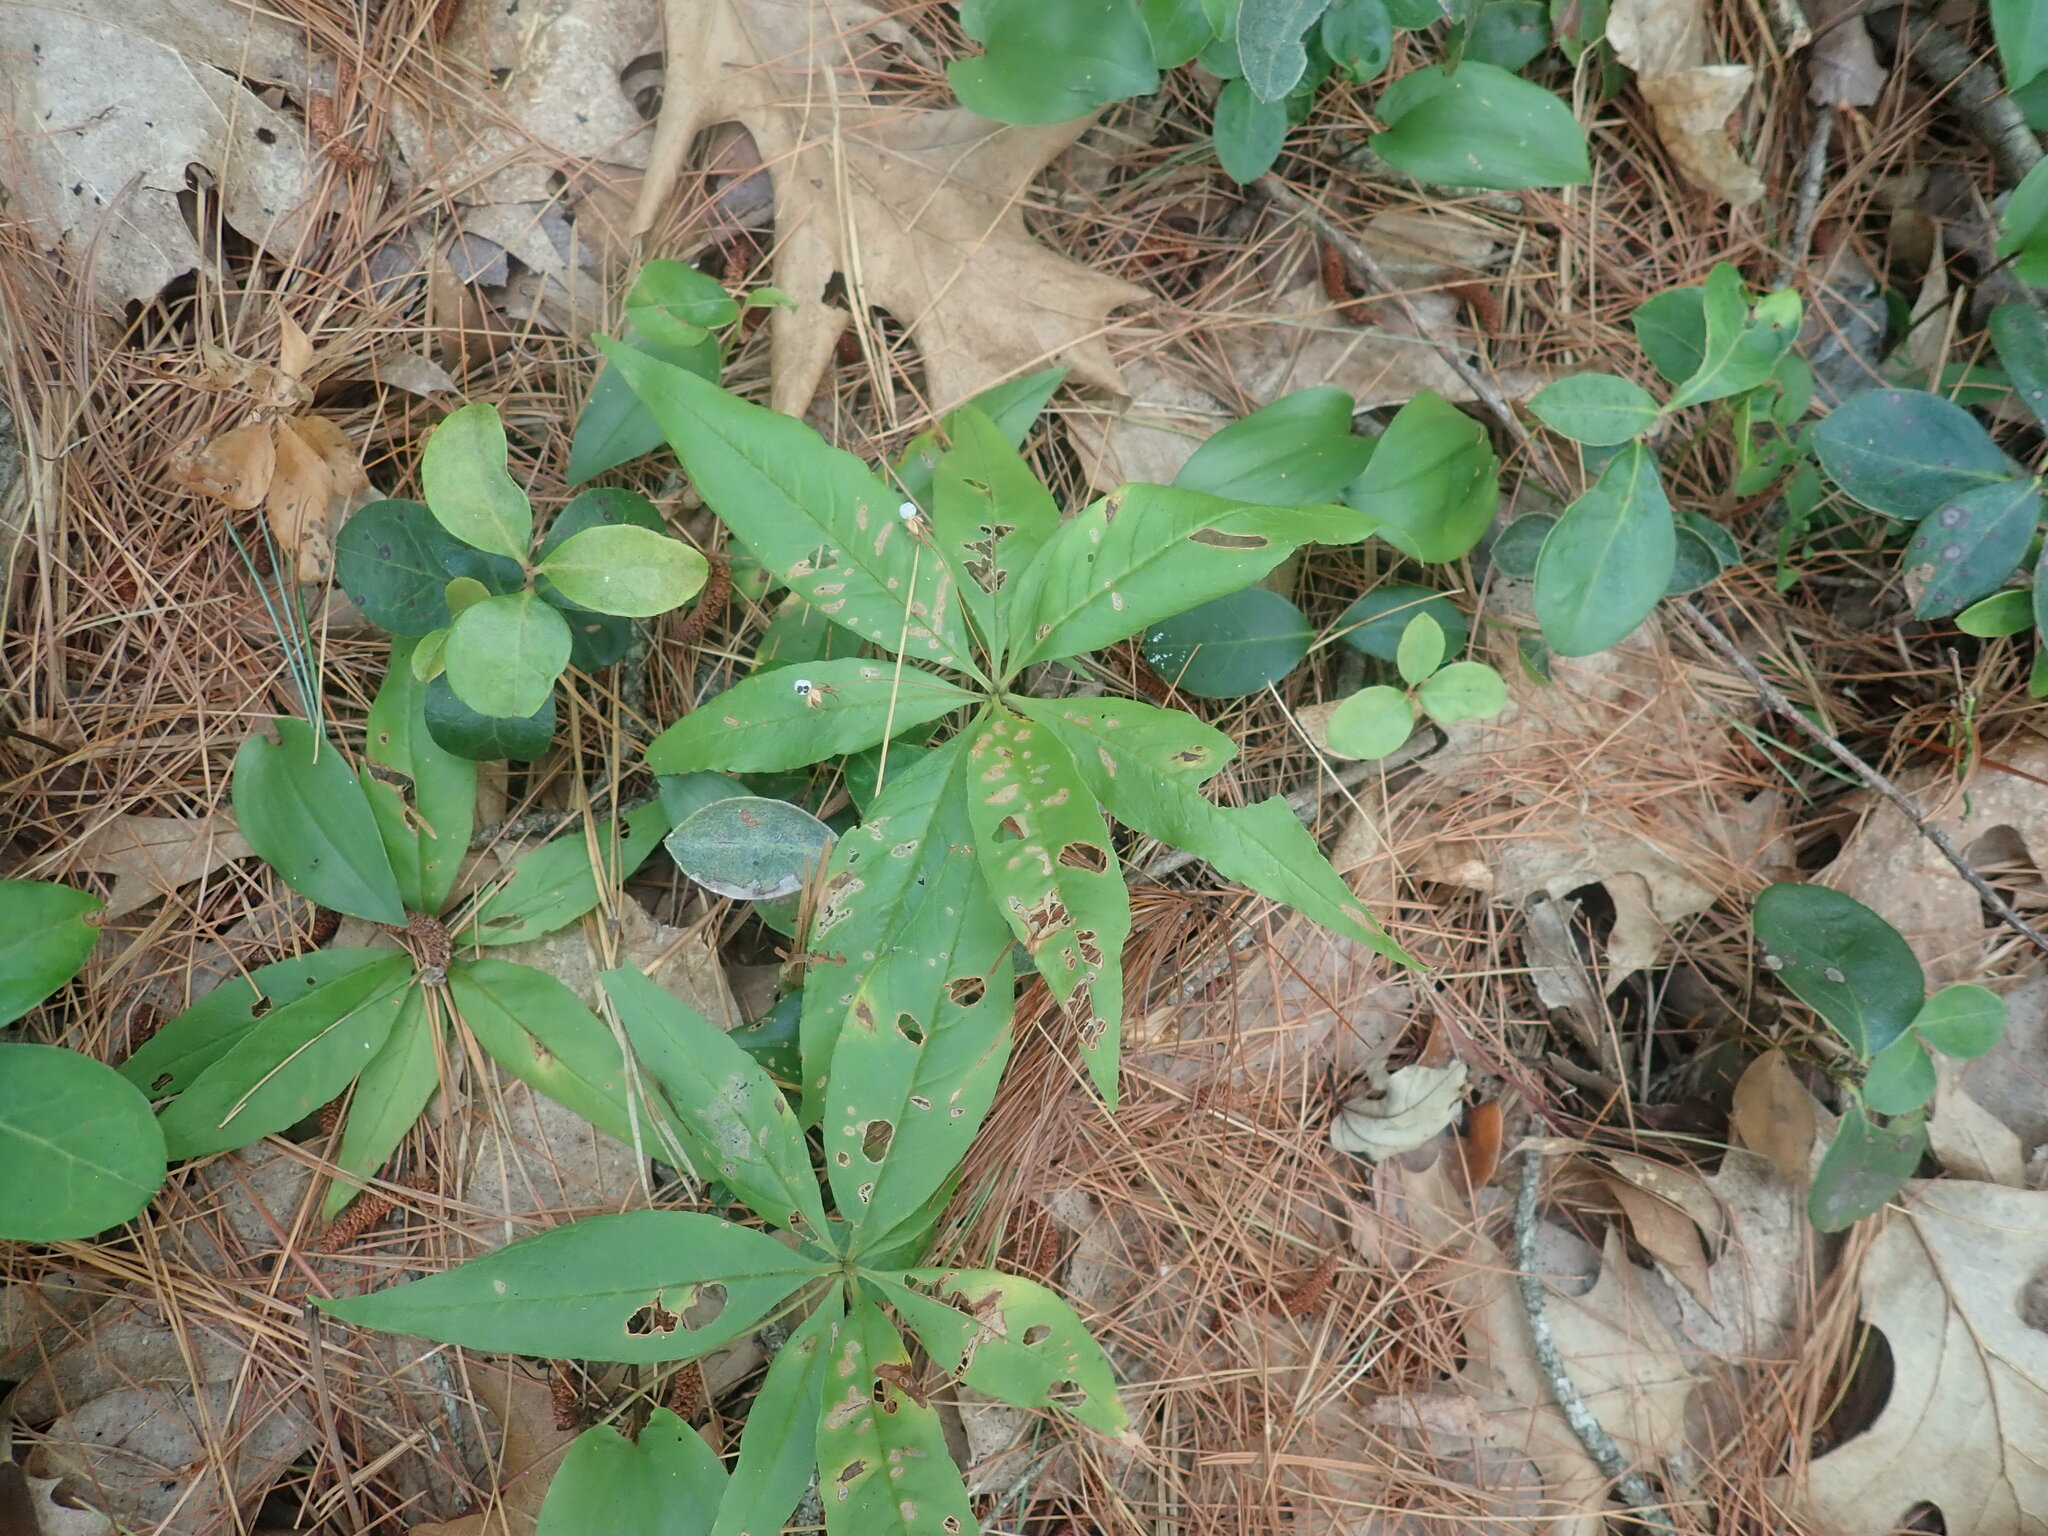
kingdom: Plantae
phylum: Tracheophyta
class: Magnoliopsida
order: Ericales
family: Primulaceae
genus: Lysimachia
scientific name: Lysimachia borealis
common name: American starflower
